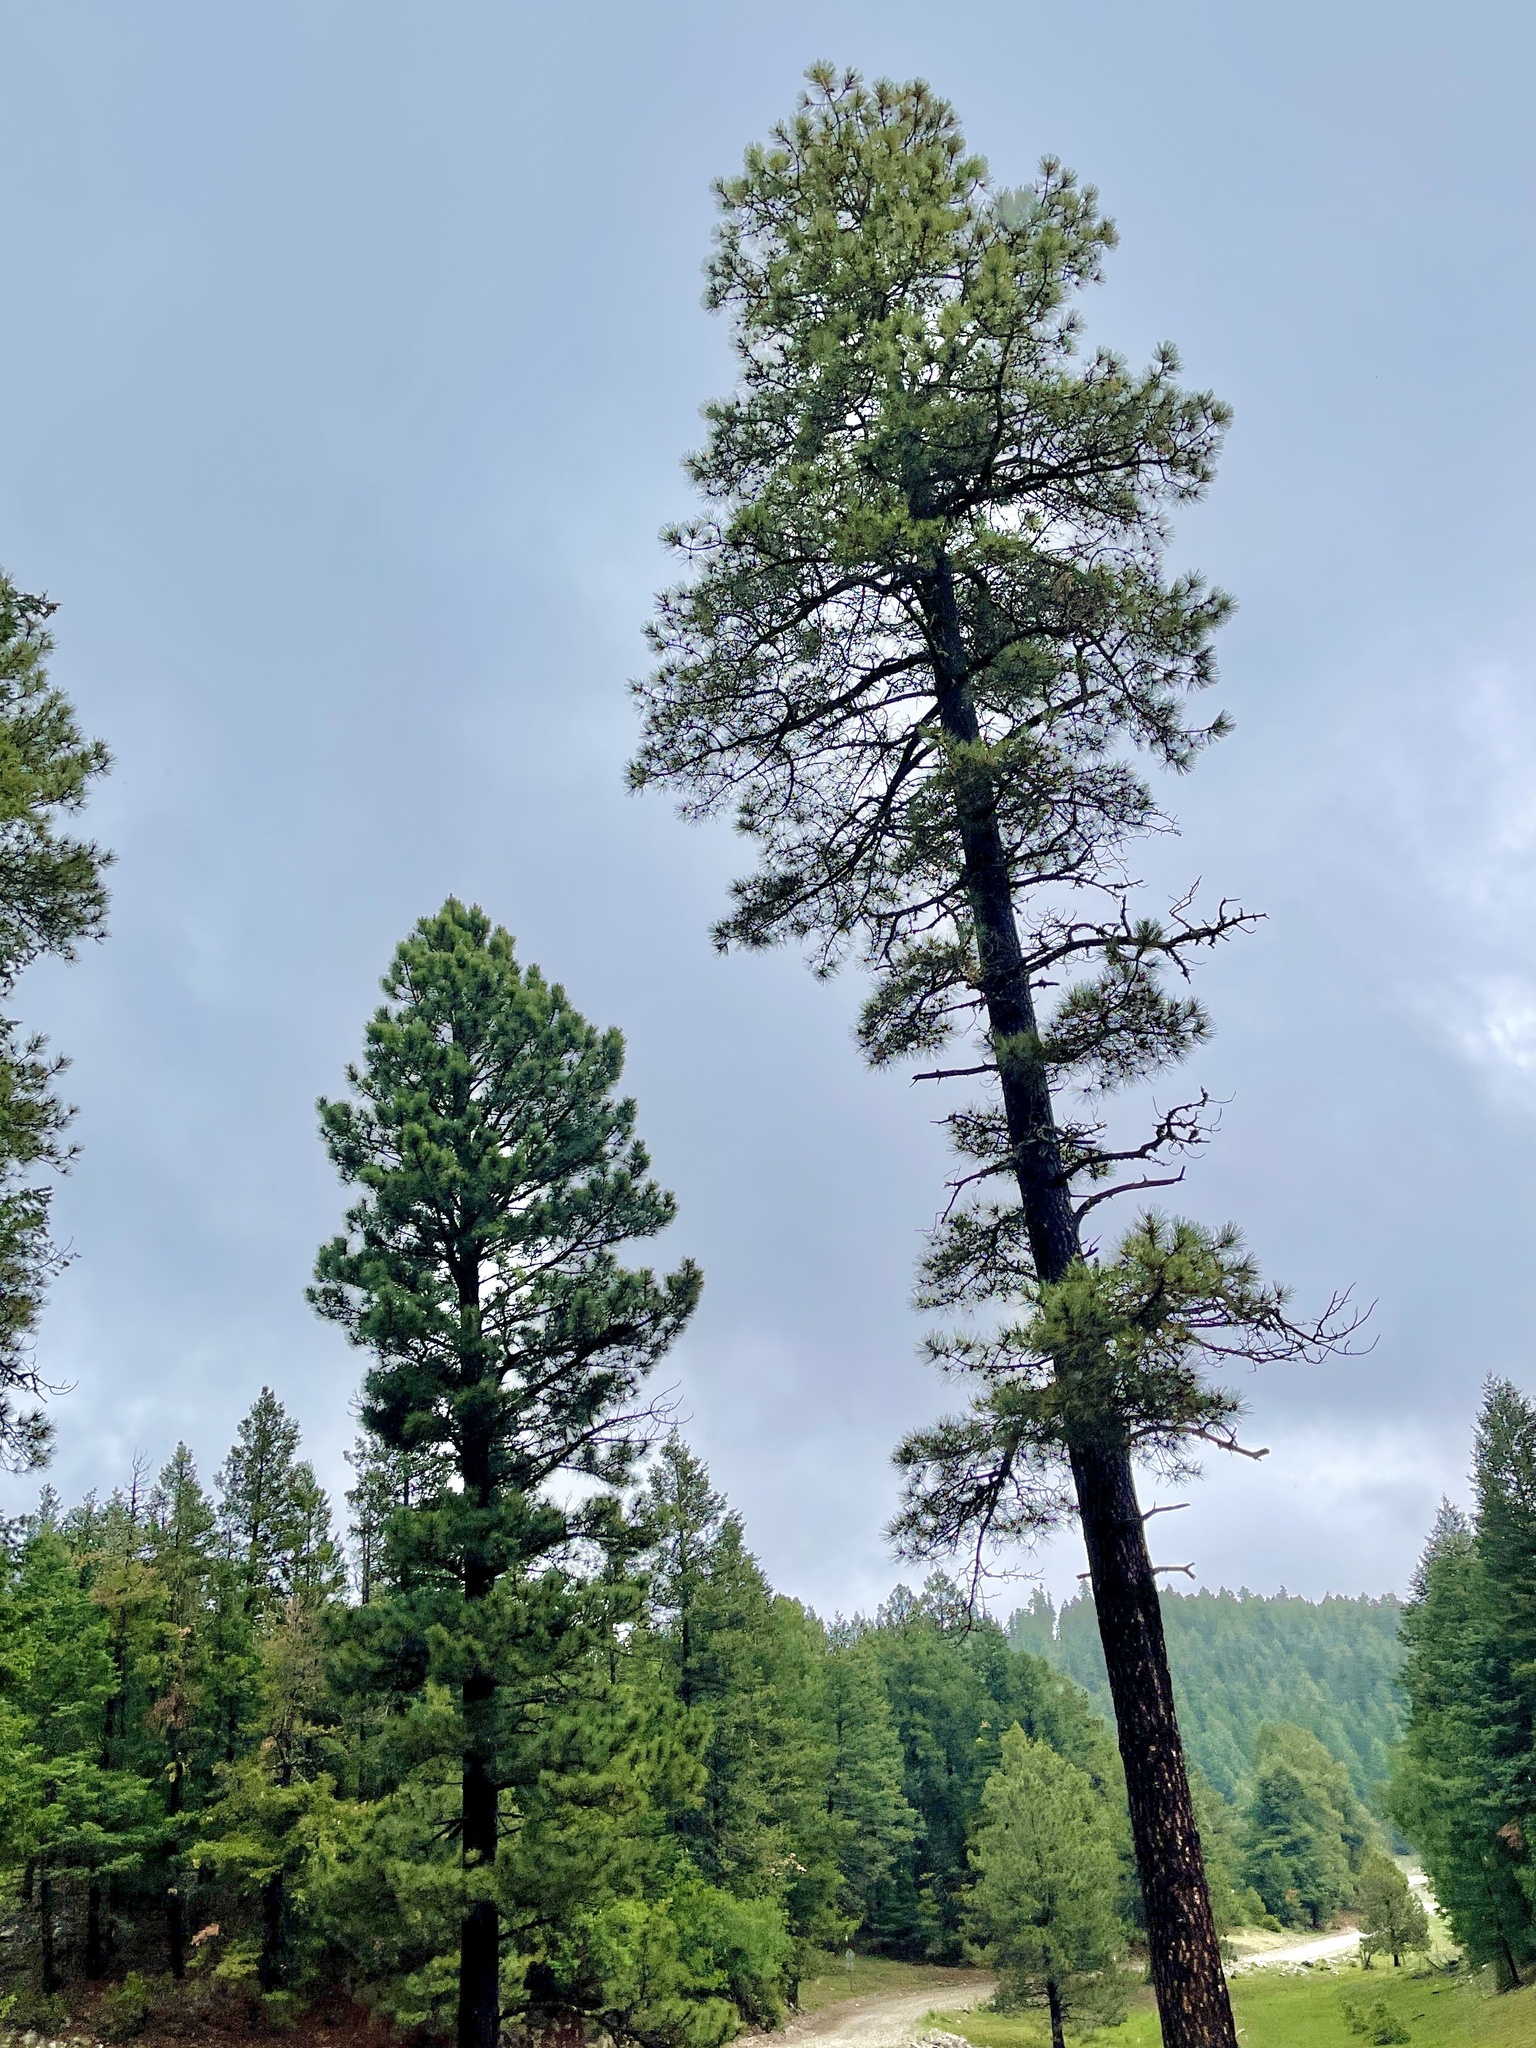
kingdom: Plantae
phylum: Tracheophyta
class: Pinopsida
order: Pinales
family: Pinaceae
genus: Pinus
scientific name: Pinus ponderosa
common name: Western yellow-pine
